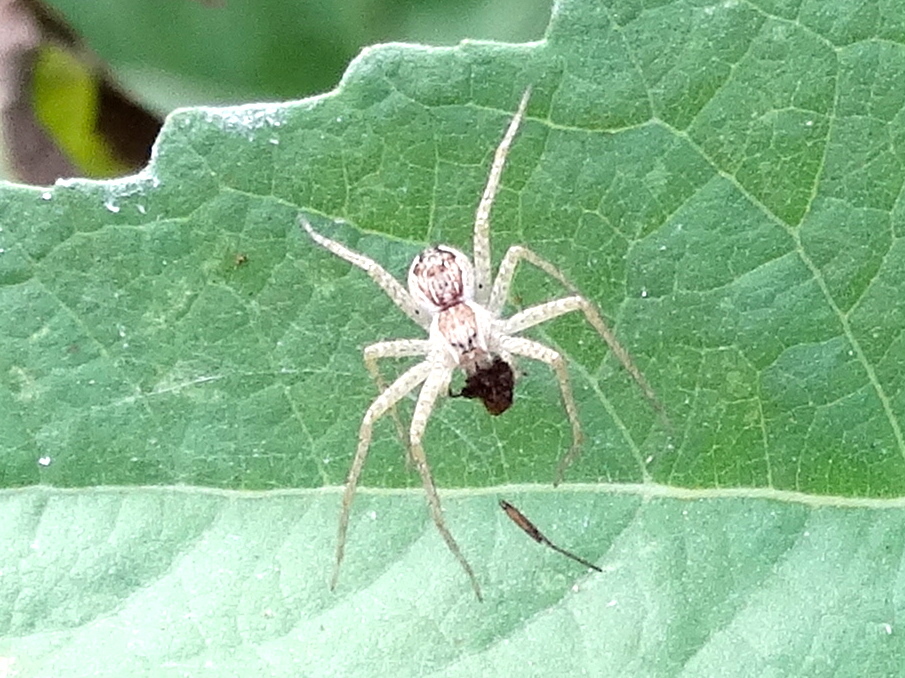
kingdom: Animalia
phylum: Arthropoda
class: Arachnida
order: Araneae
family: Pisauridae
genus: Tinus
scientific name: Tinus
